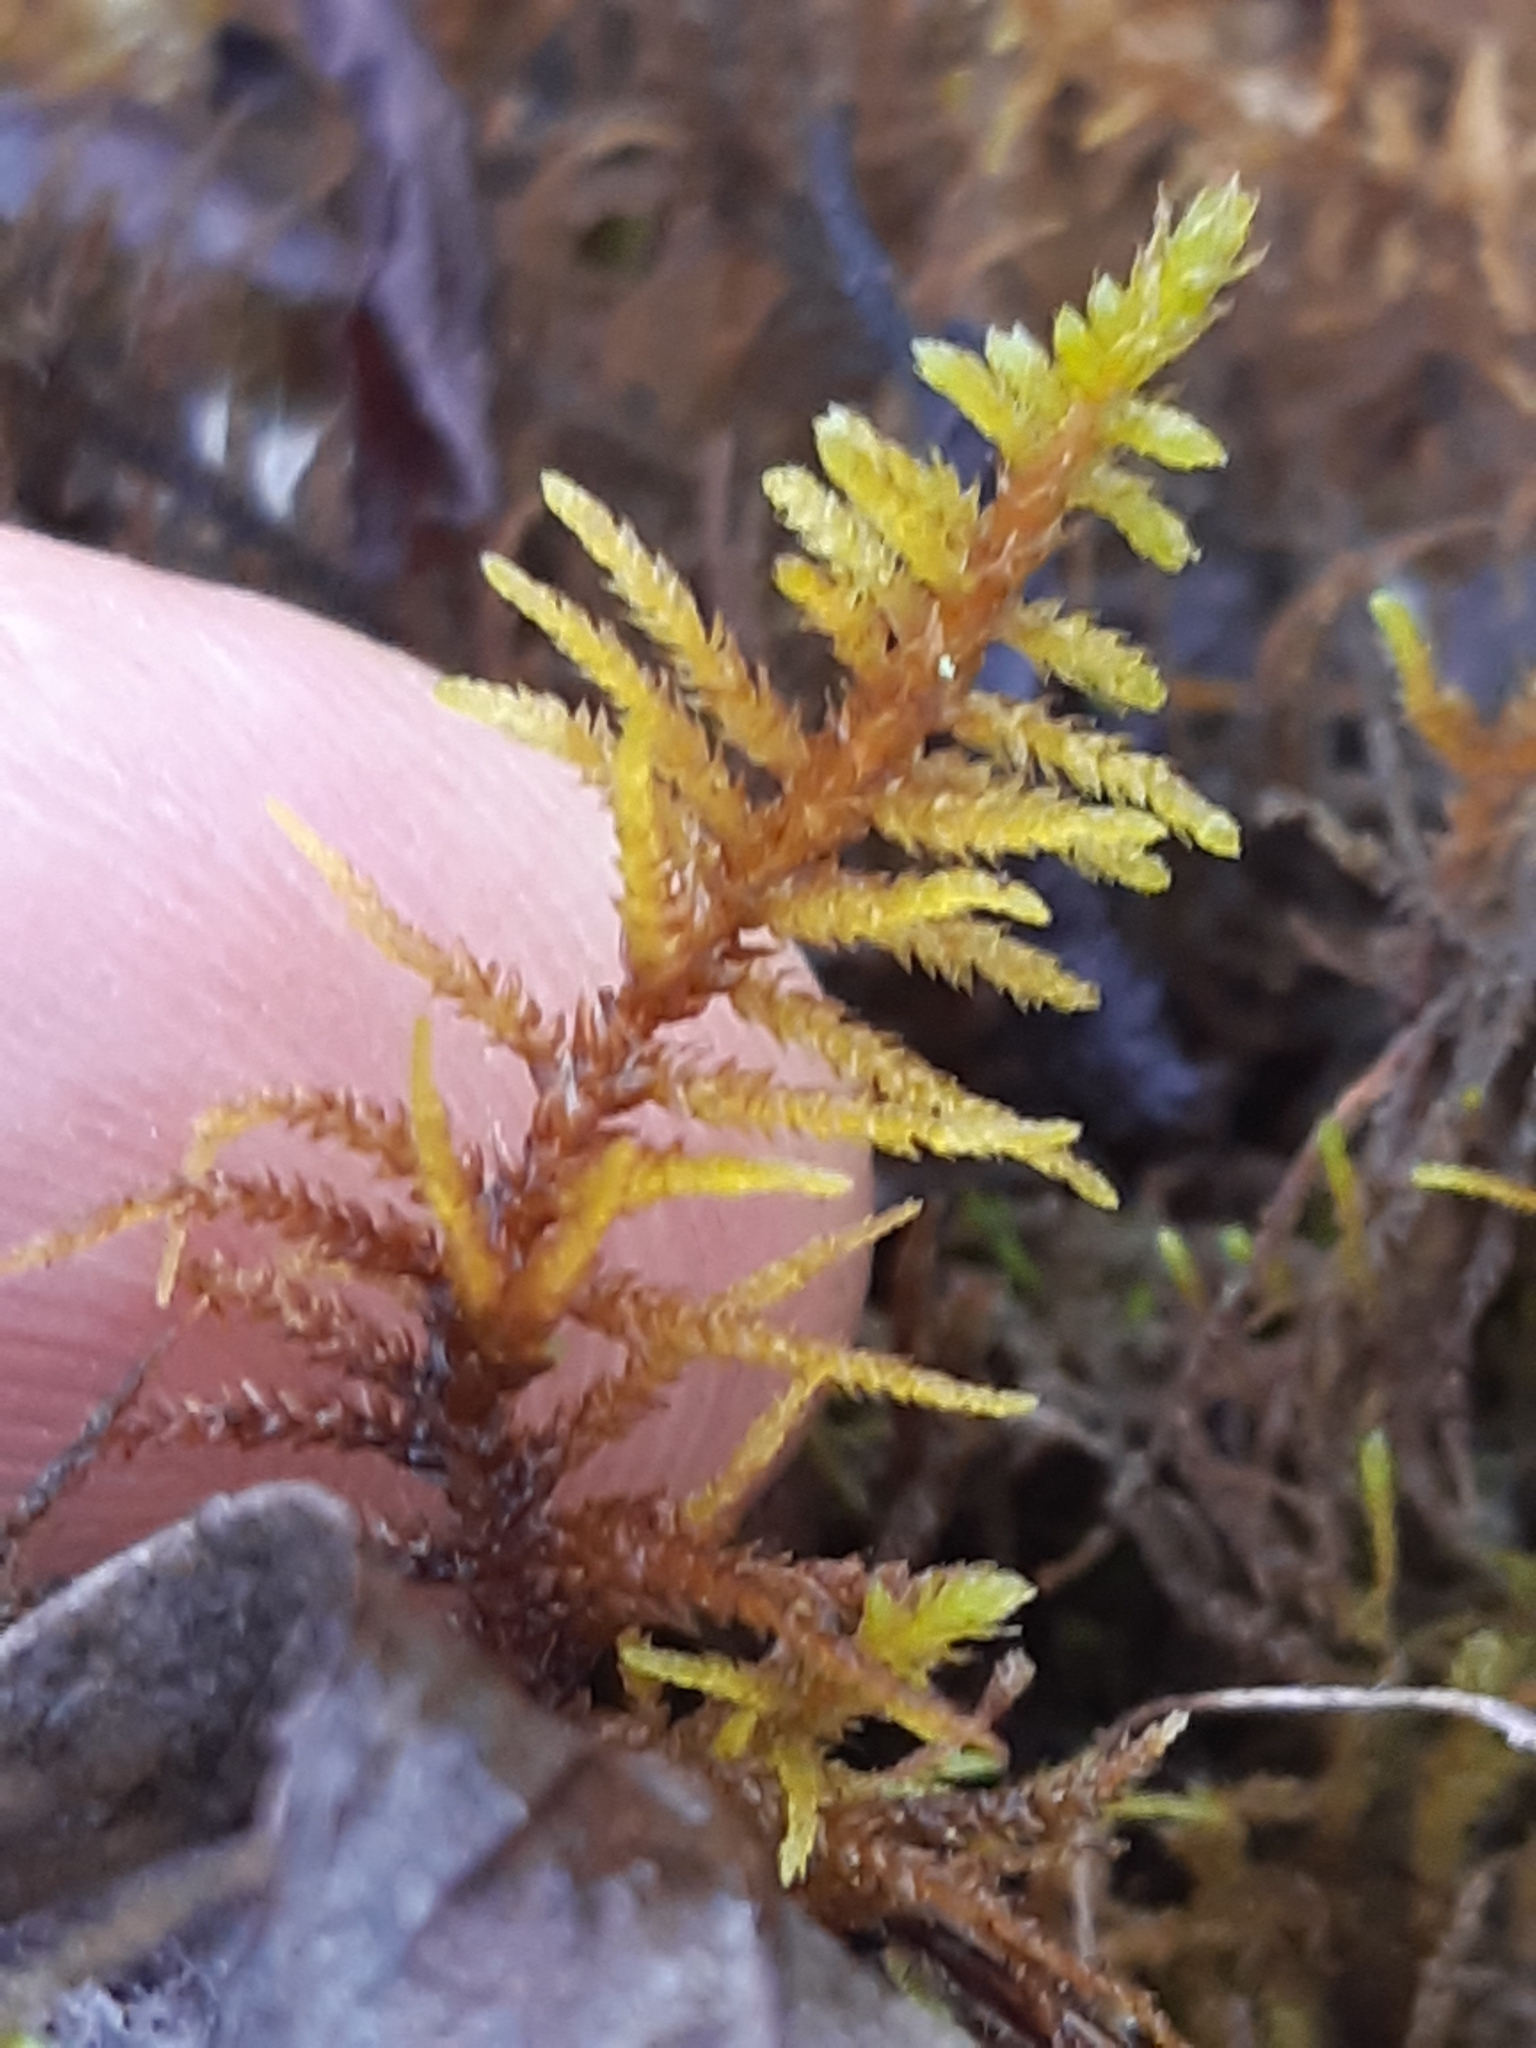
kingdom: Plantae
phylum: Bryophyta
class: Bryopsida
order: Hypnales
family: Thuidiaceae
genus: Abietinella
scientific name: Abietinella abietina
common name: Wiry fern moss
